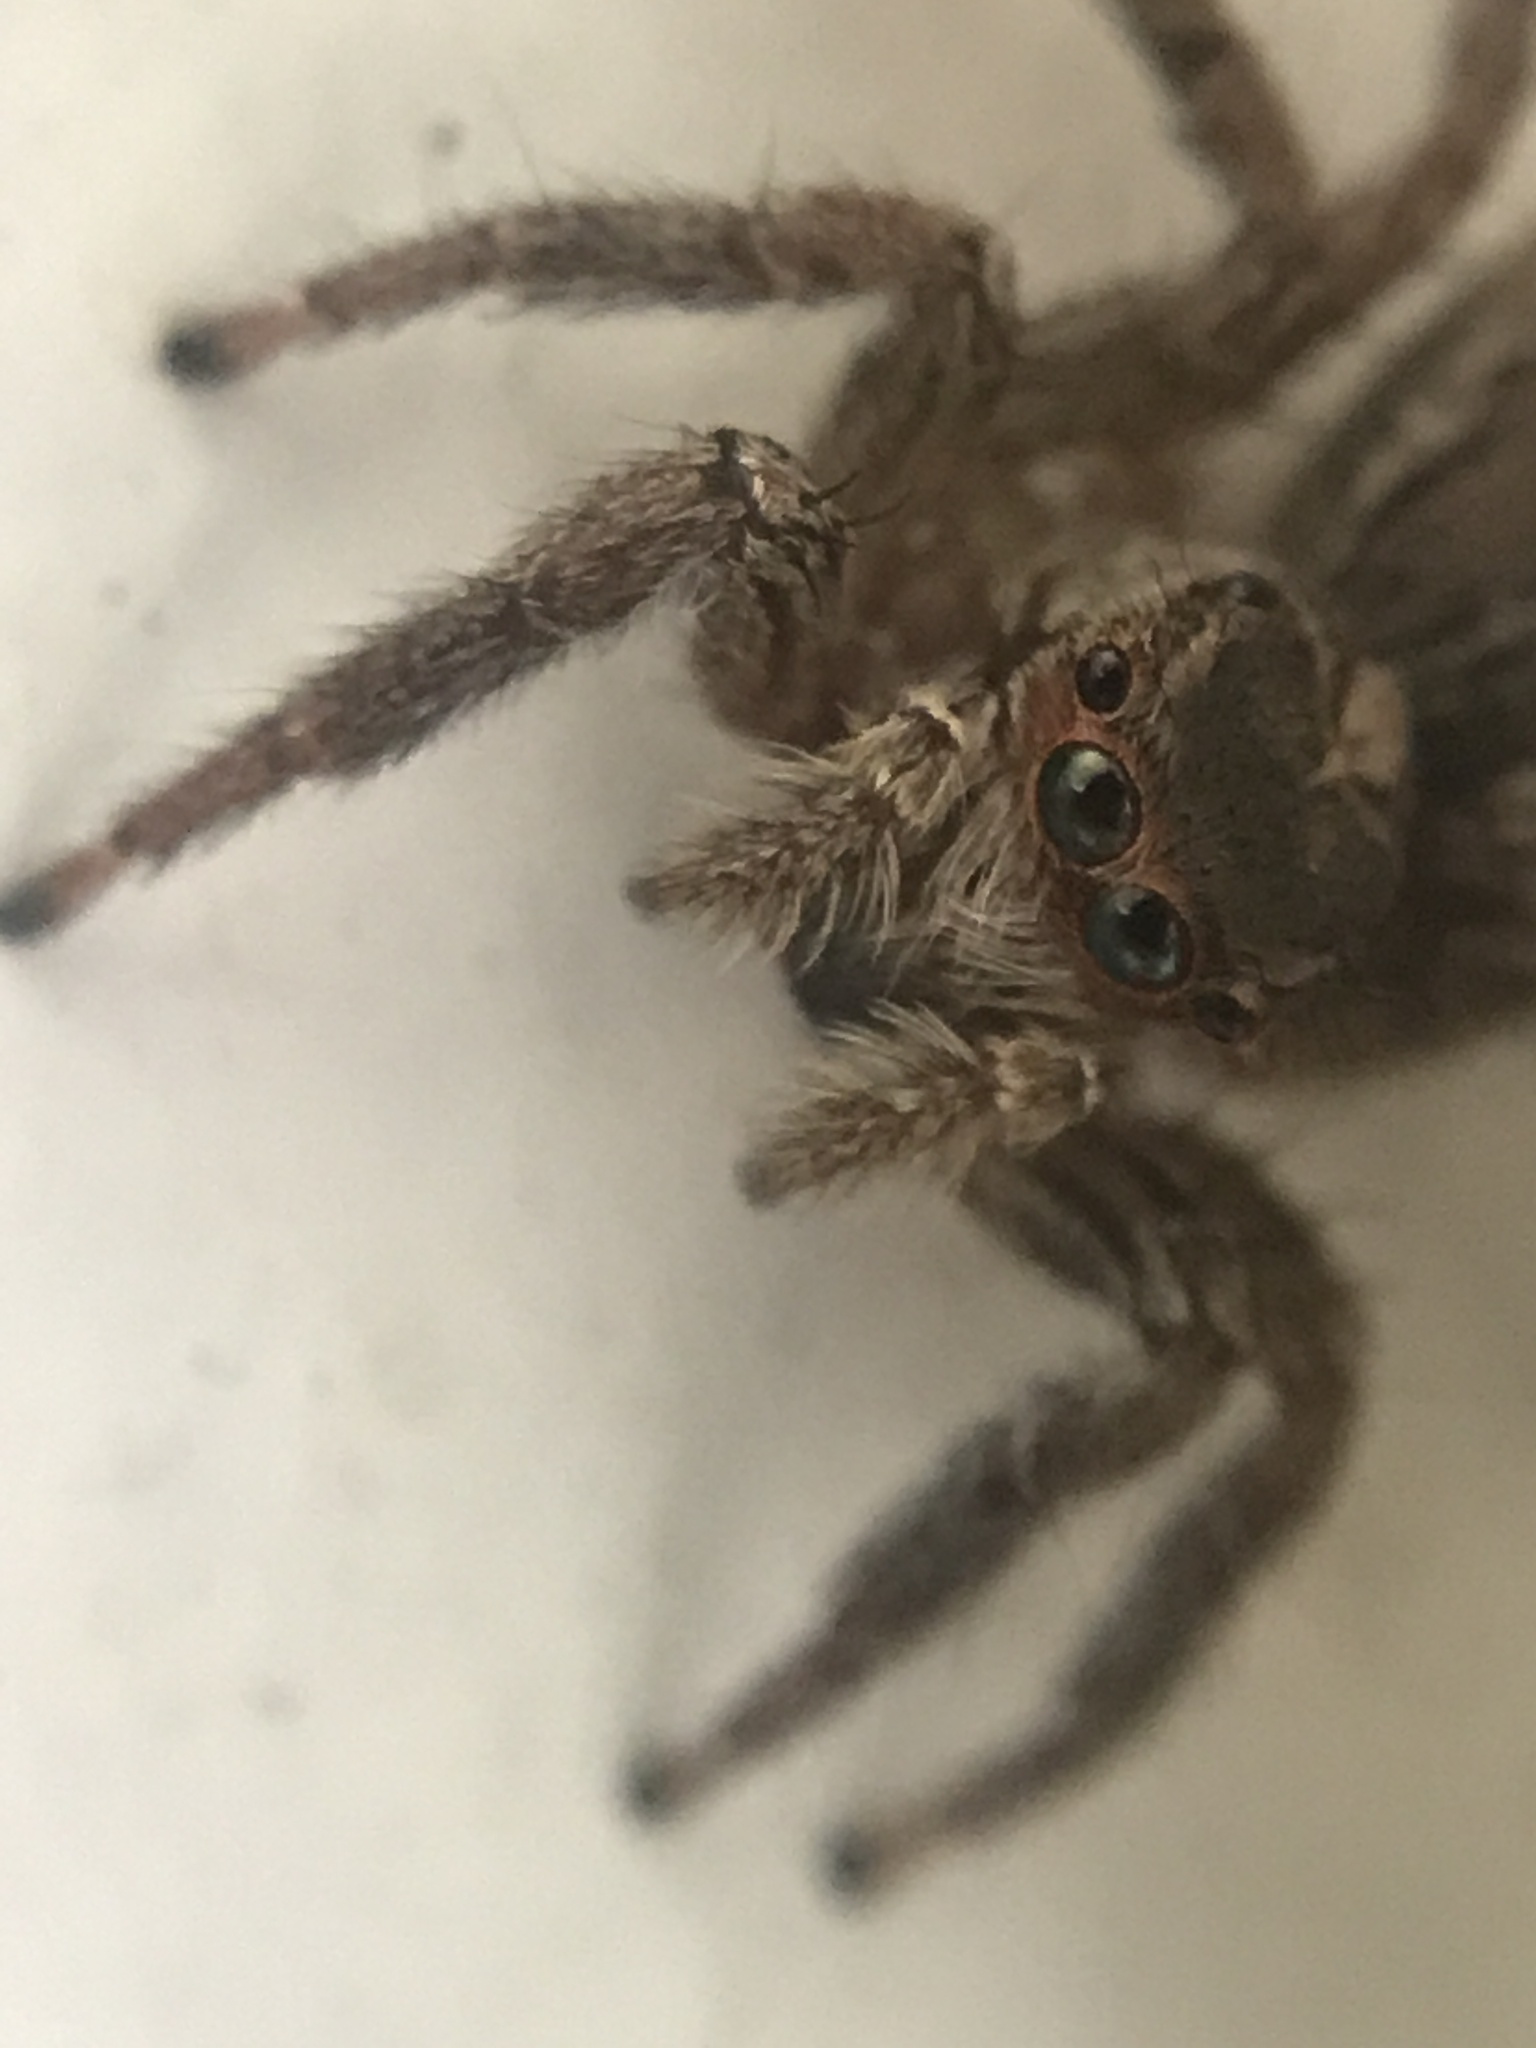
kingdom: Animalia
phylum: Arthropoda
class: Arachnida
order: Araneae
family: Salticidae
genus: Plexippus
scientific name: Plexippus paykulli
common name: Pantropical jumper
